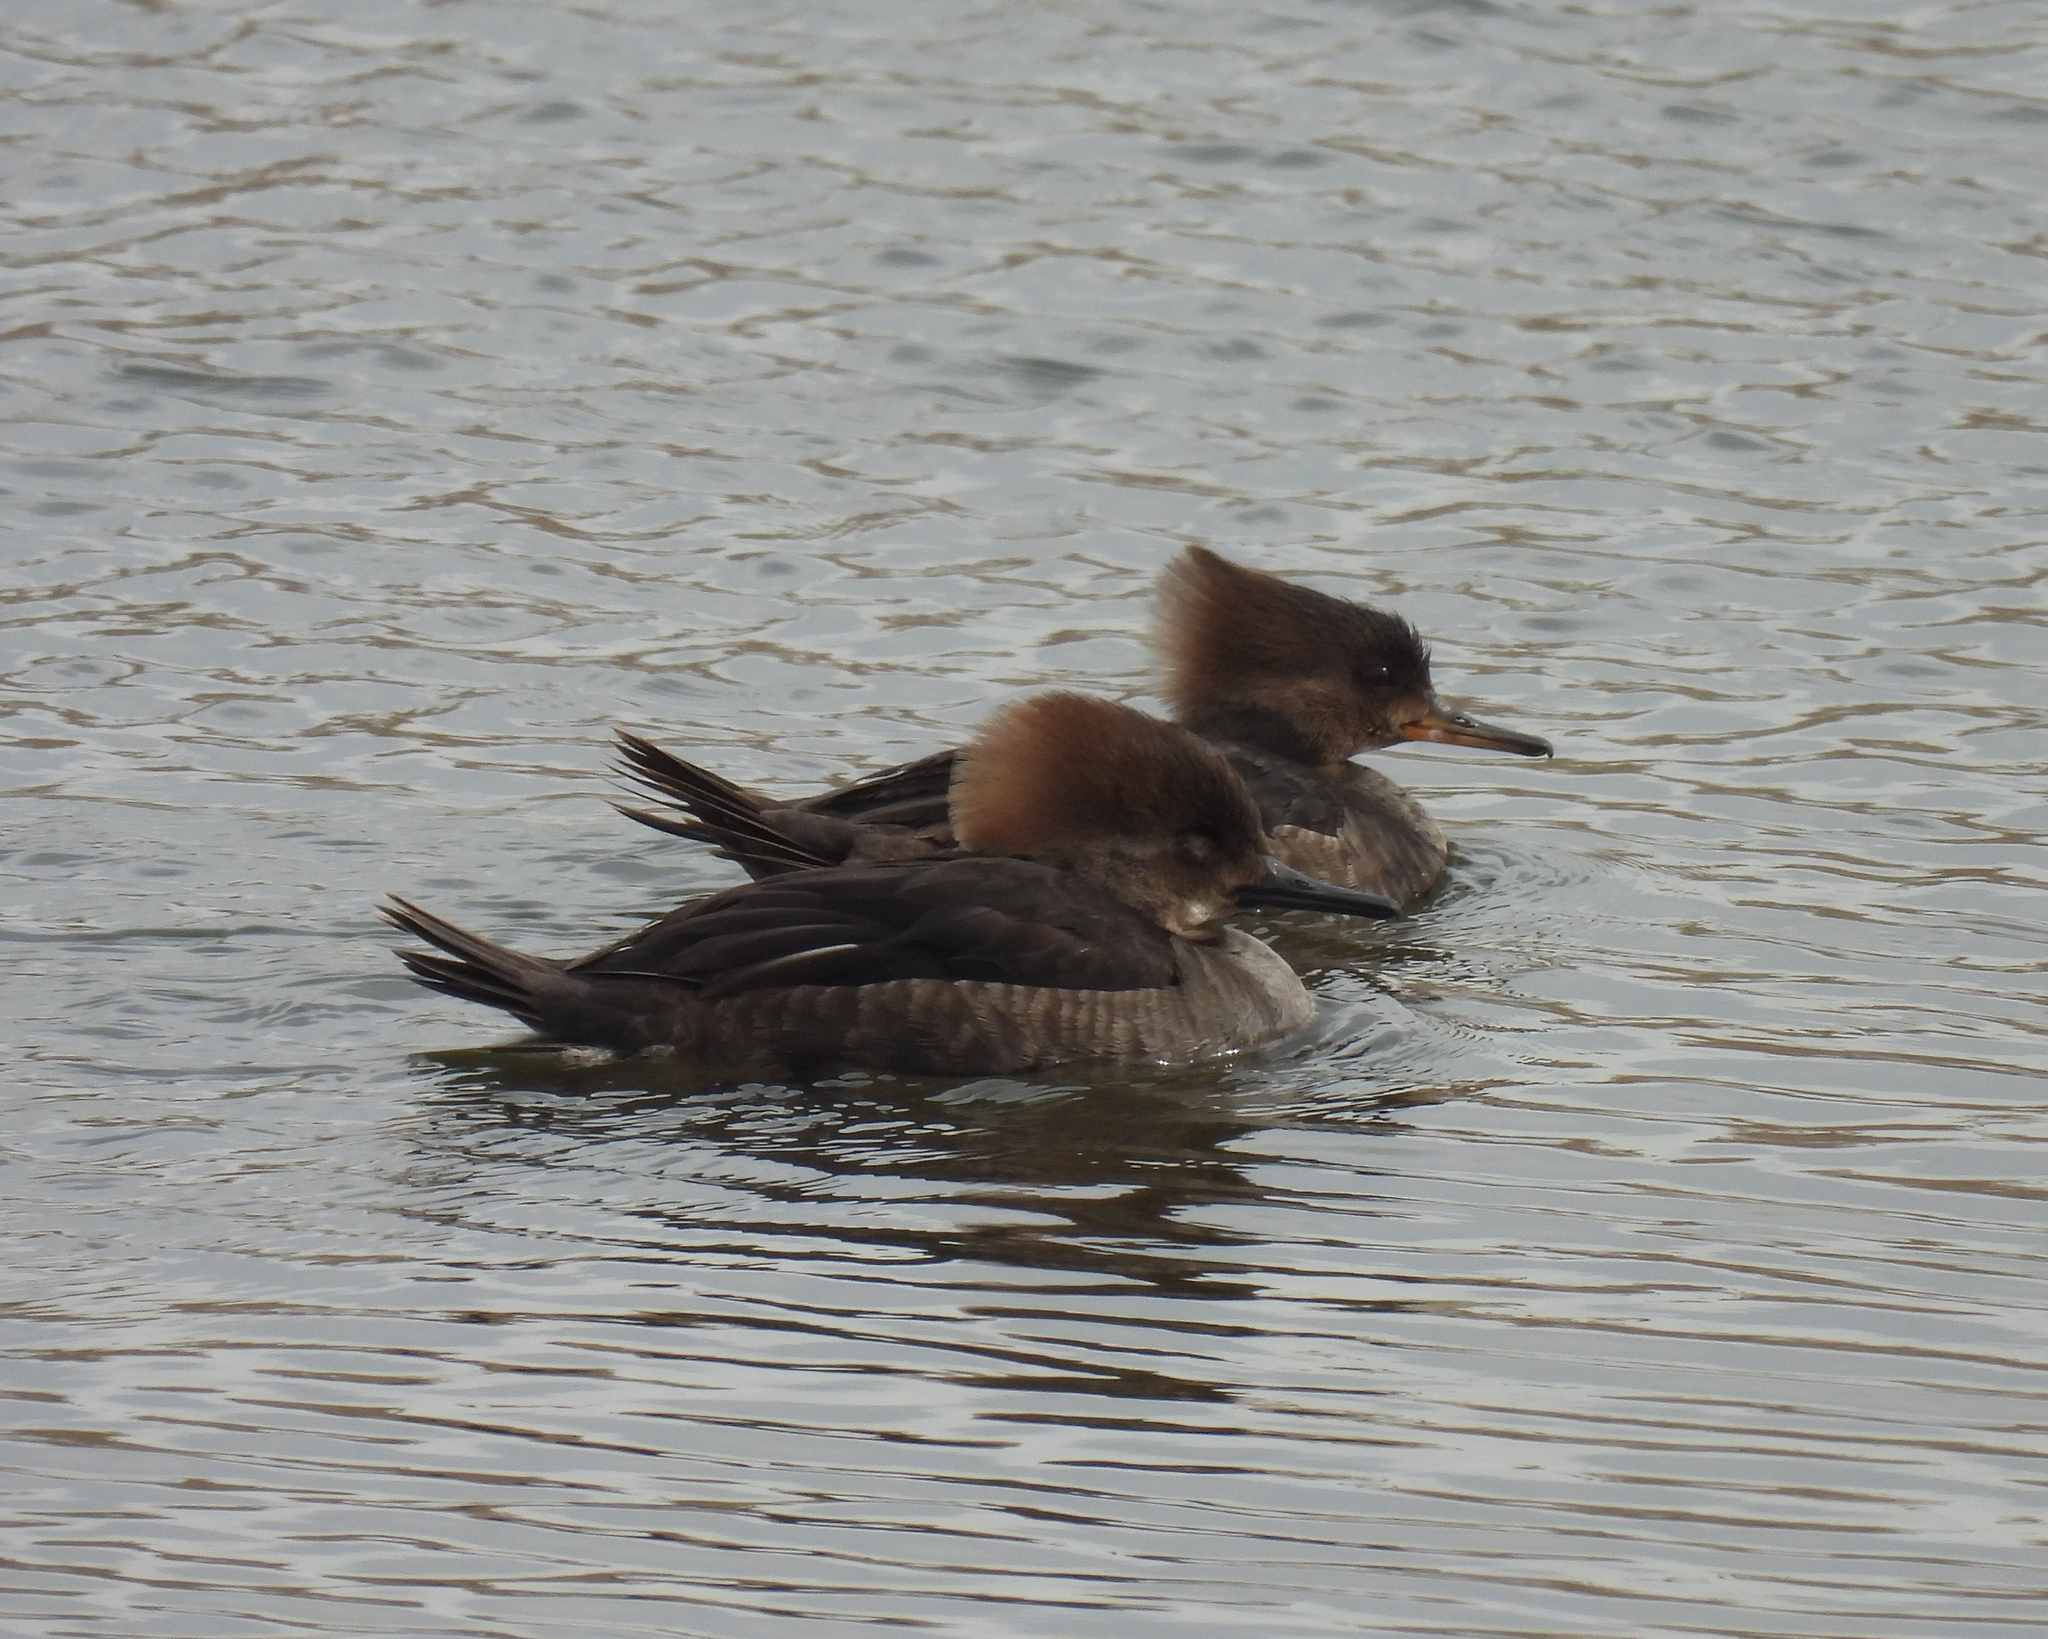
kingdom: Animalia
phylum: Chordata
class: Aves
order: Anseriformes
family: Anatidae
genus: Lophodytes
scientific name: Lophodytes cucullatus
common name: Hooded merganser
